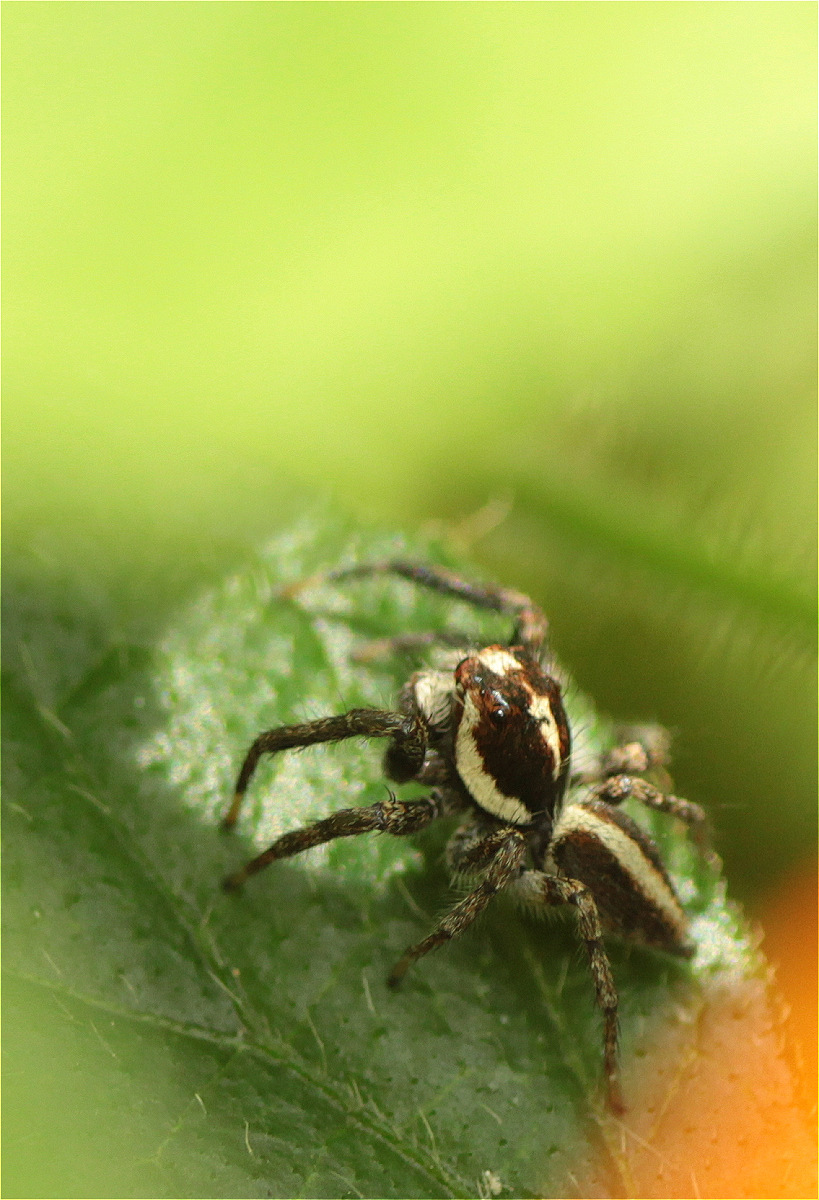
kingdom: Animalia
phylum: Arthropoda
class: Arachnida
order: Araneae
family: Salticidae
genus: Frigga
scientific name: Frigga crocuta
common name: Jumping spiders
